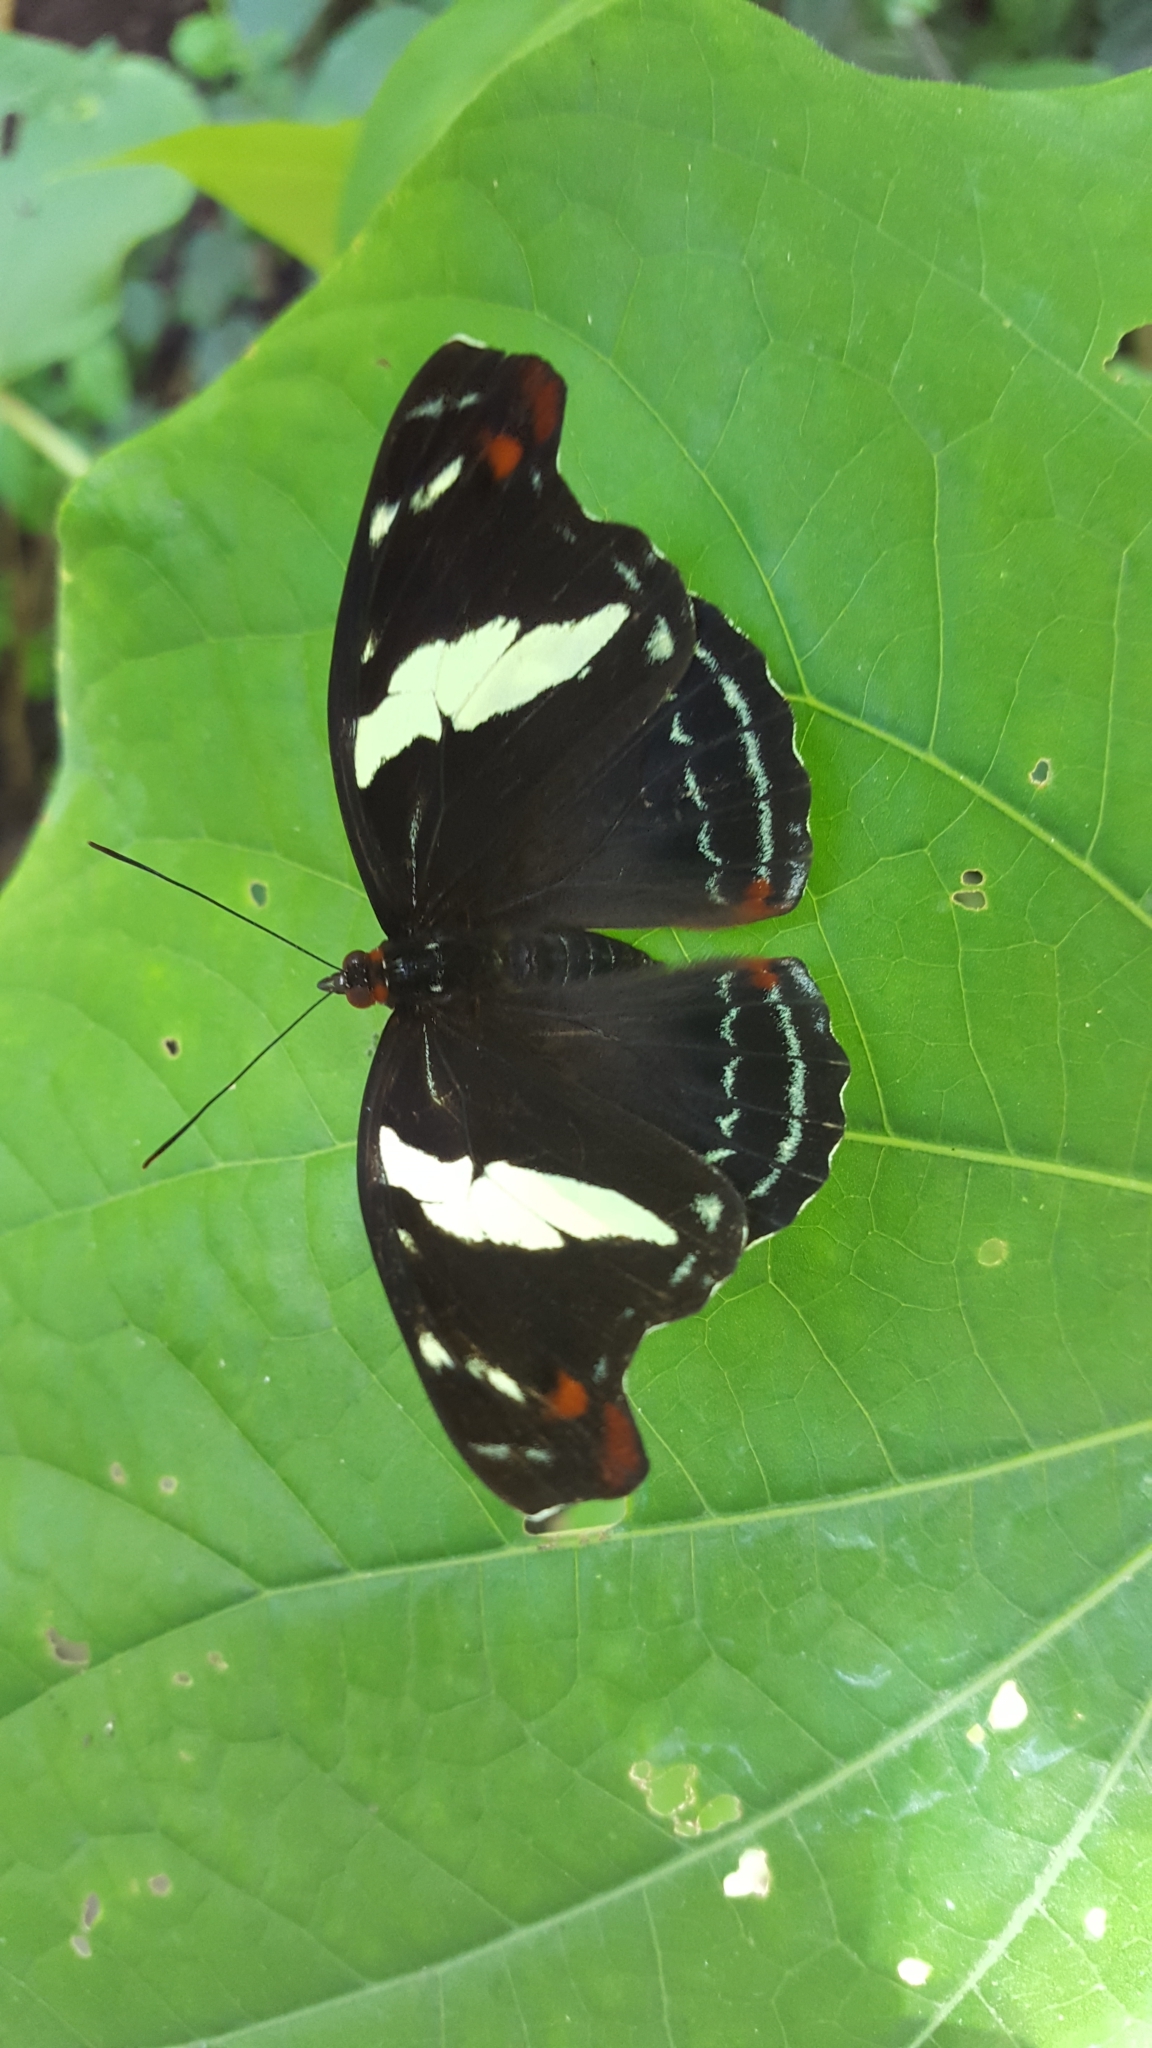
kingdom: Animalia
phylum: Arthropoda
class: Insecta
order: Lepidoptera
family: Nymphalidae
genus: Catonephele
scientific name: Catonephele numilia
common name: Blue-frosted banner
